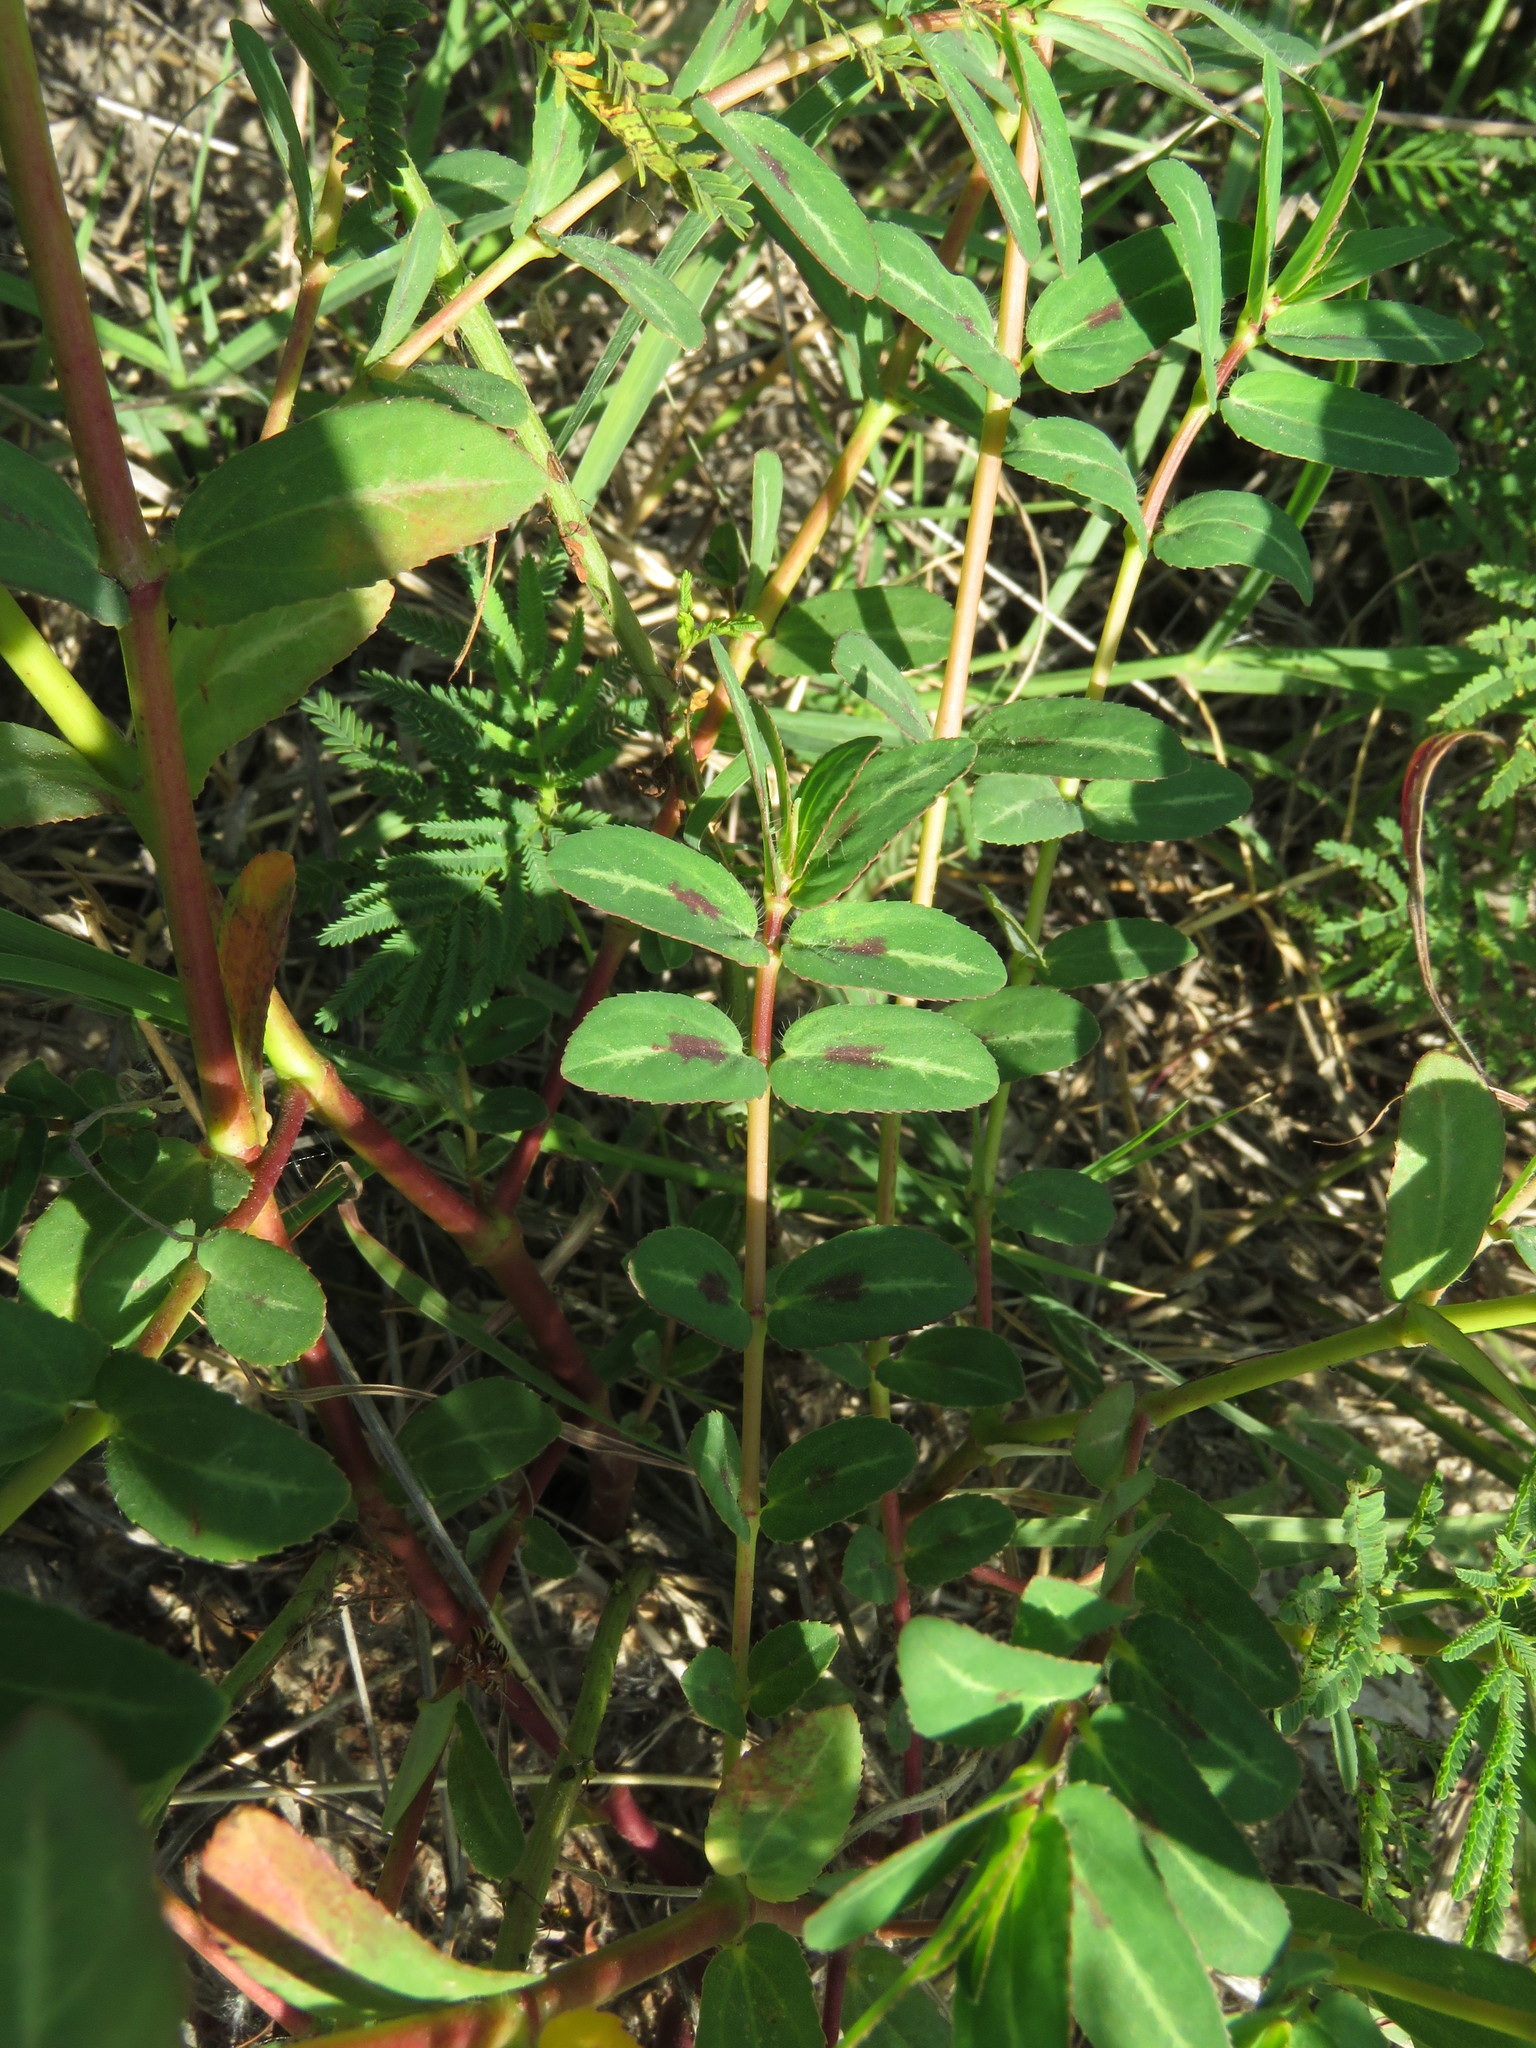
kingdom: Plantae
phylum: Tracheophyta
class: Magnoliopsida
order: Malpighiales
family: Euphorbiaceae
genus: Euphorbia
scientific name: Euphorbia nutans
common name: Eyebane
